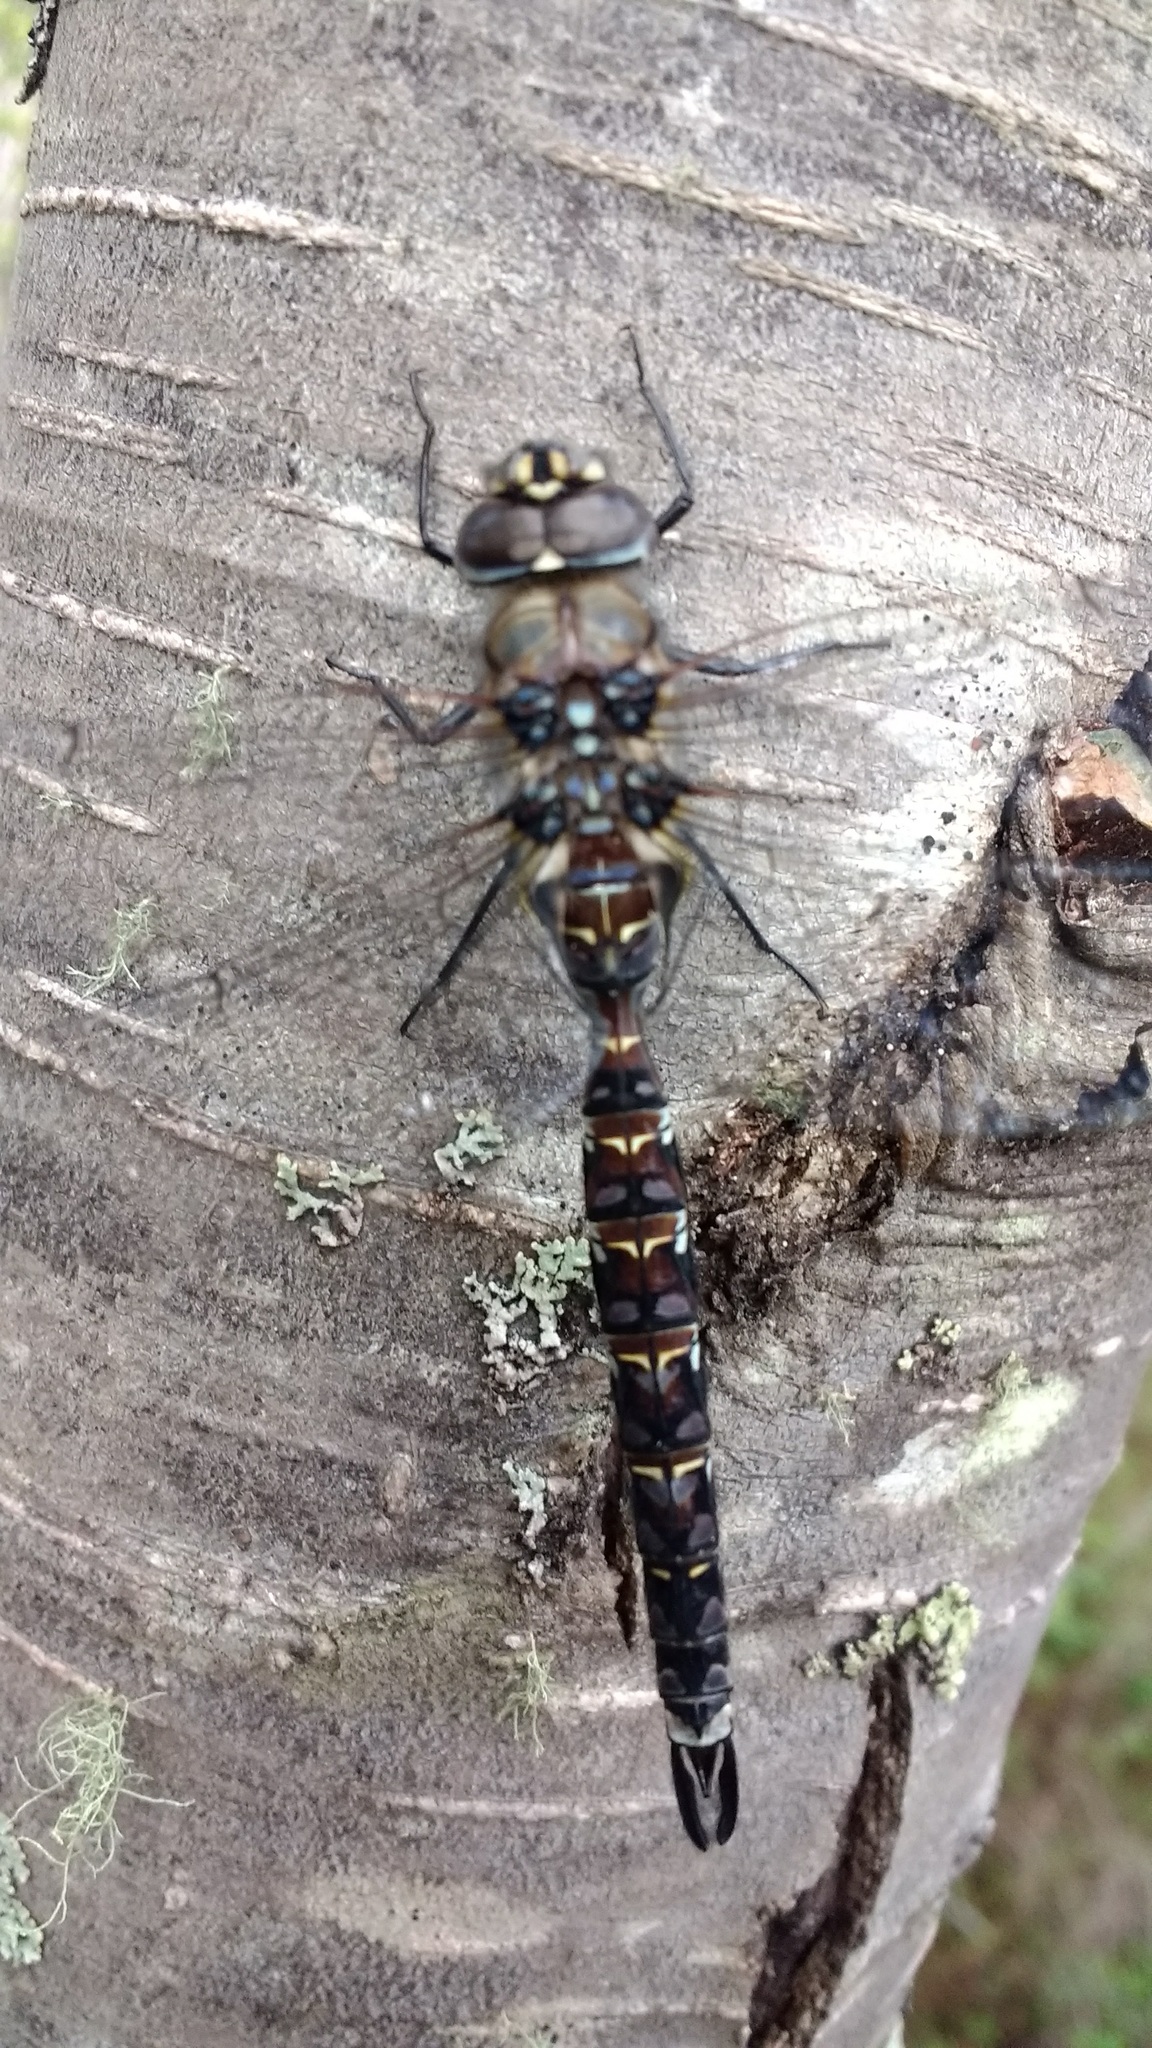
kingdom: Animalia
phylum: Arthropoda
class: Insecta
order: Odonata
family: Aeshnidae
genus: Rhionaeschna
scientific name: Rhionaeschna variegata
